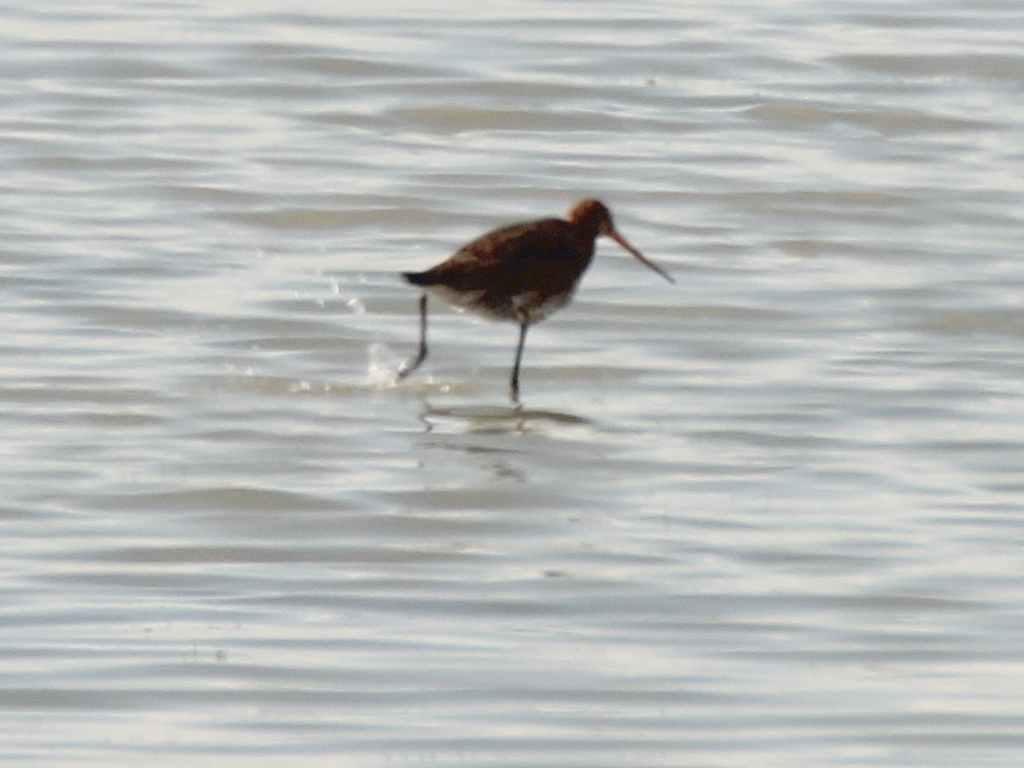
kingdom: Animalia
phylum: Chordata
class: Aves
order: Charadriiformes
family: Scolopacidae
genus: Limosa
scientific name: Limosa limosa
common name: Black-tailed godwit
